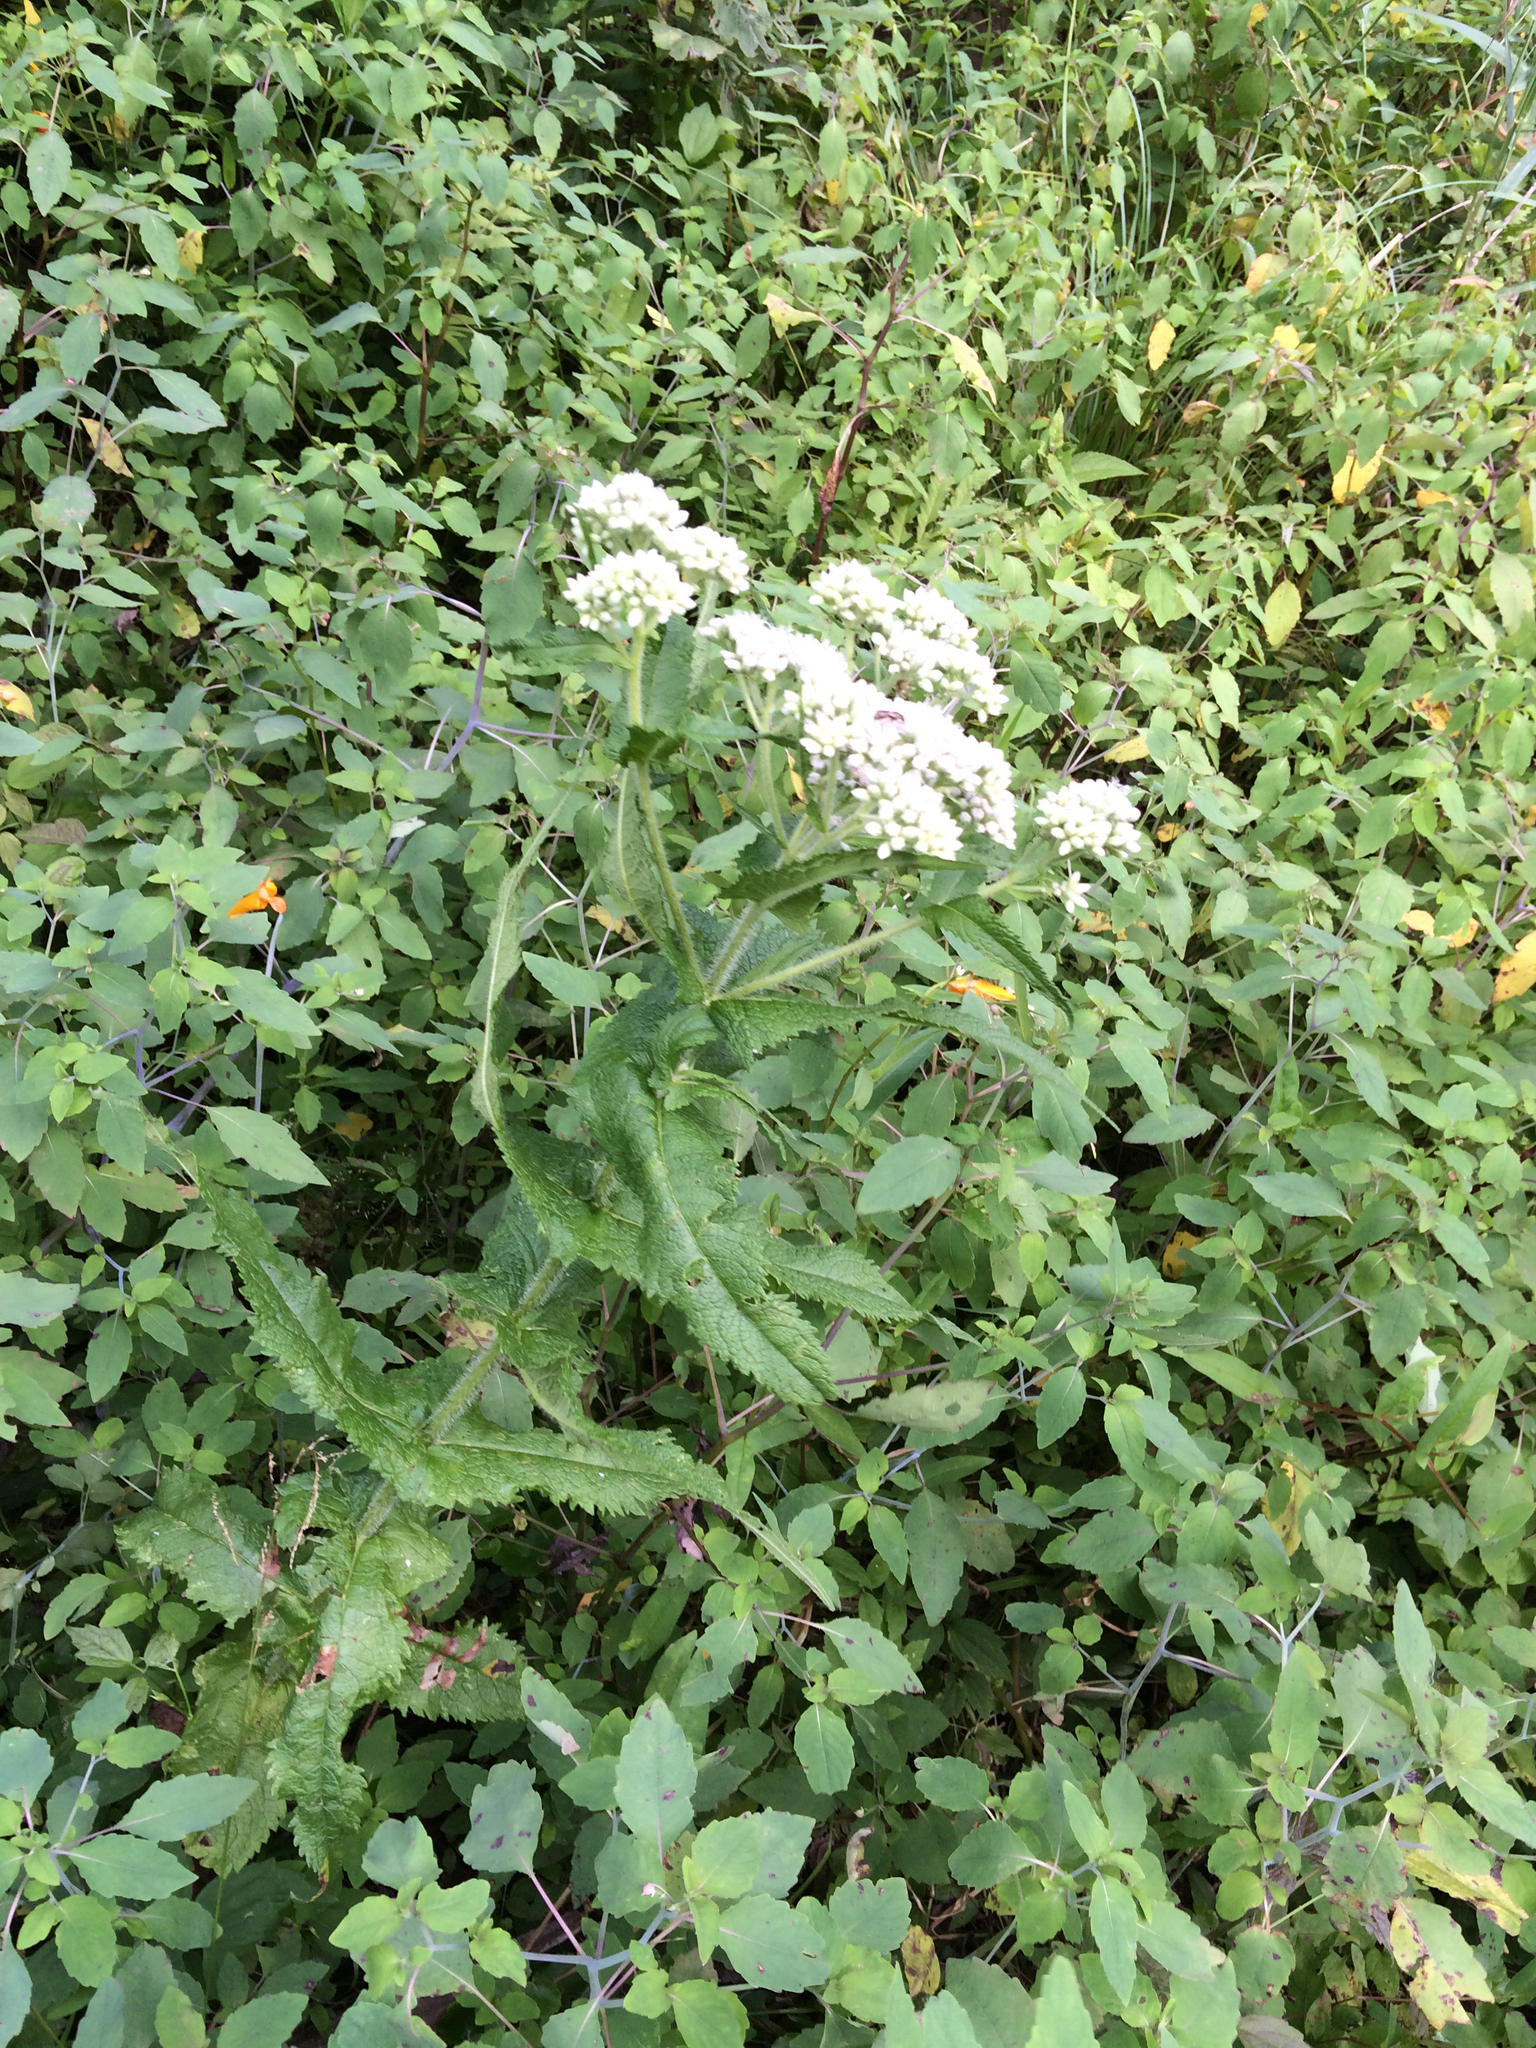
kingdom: Plantae
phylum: Tracheophyta
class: Magnoliopsida
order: Asterales
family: Asteraceae
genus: Eupatorium
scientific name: Eupatorium perfoliatum
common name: Boneset
